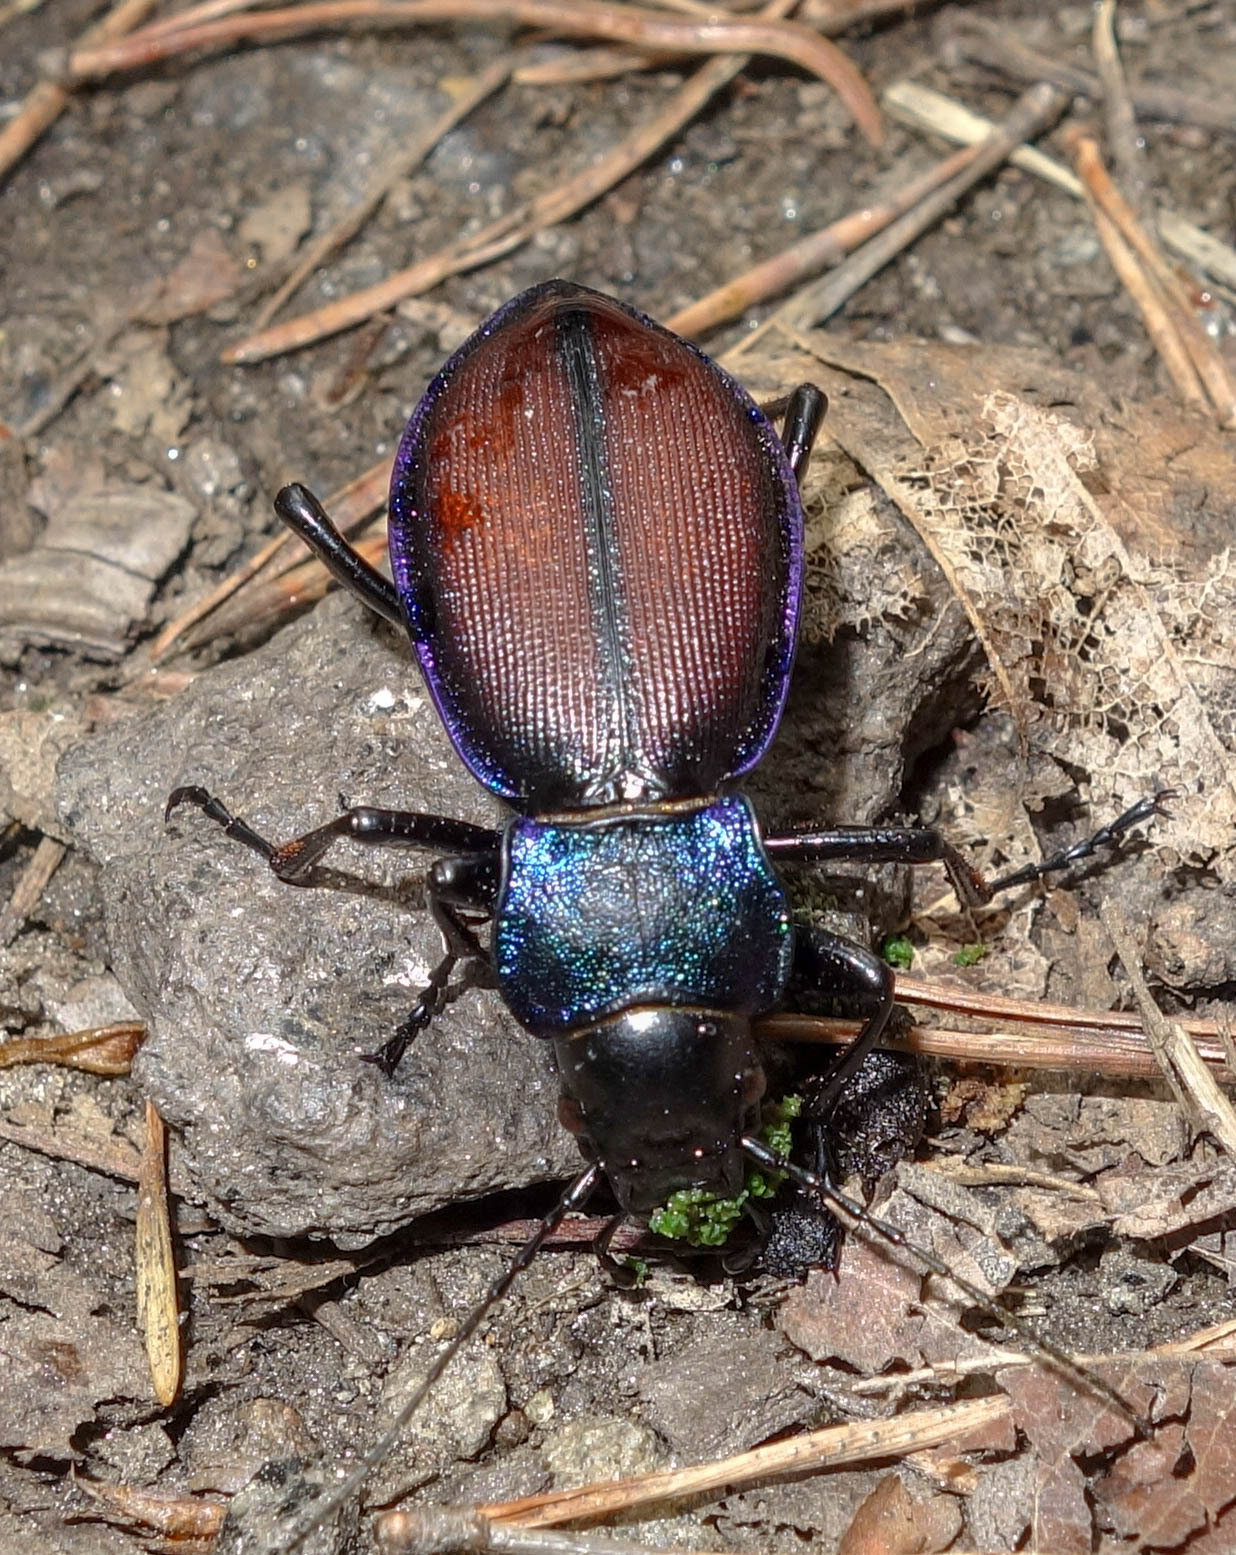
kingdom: Animalia
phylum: Arthropoda
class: Insecta
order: Coleoptera
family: Carabidae
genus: Carabus
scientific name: Carabus schoenherri
